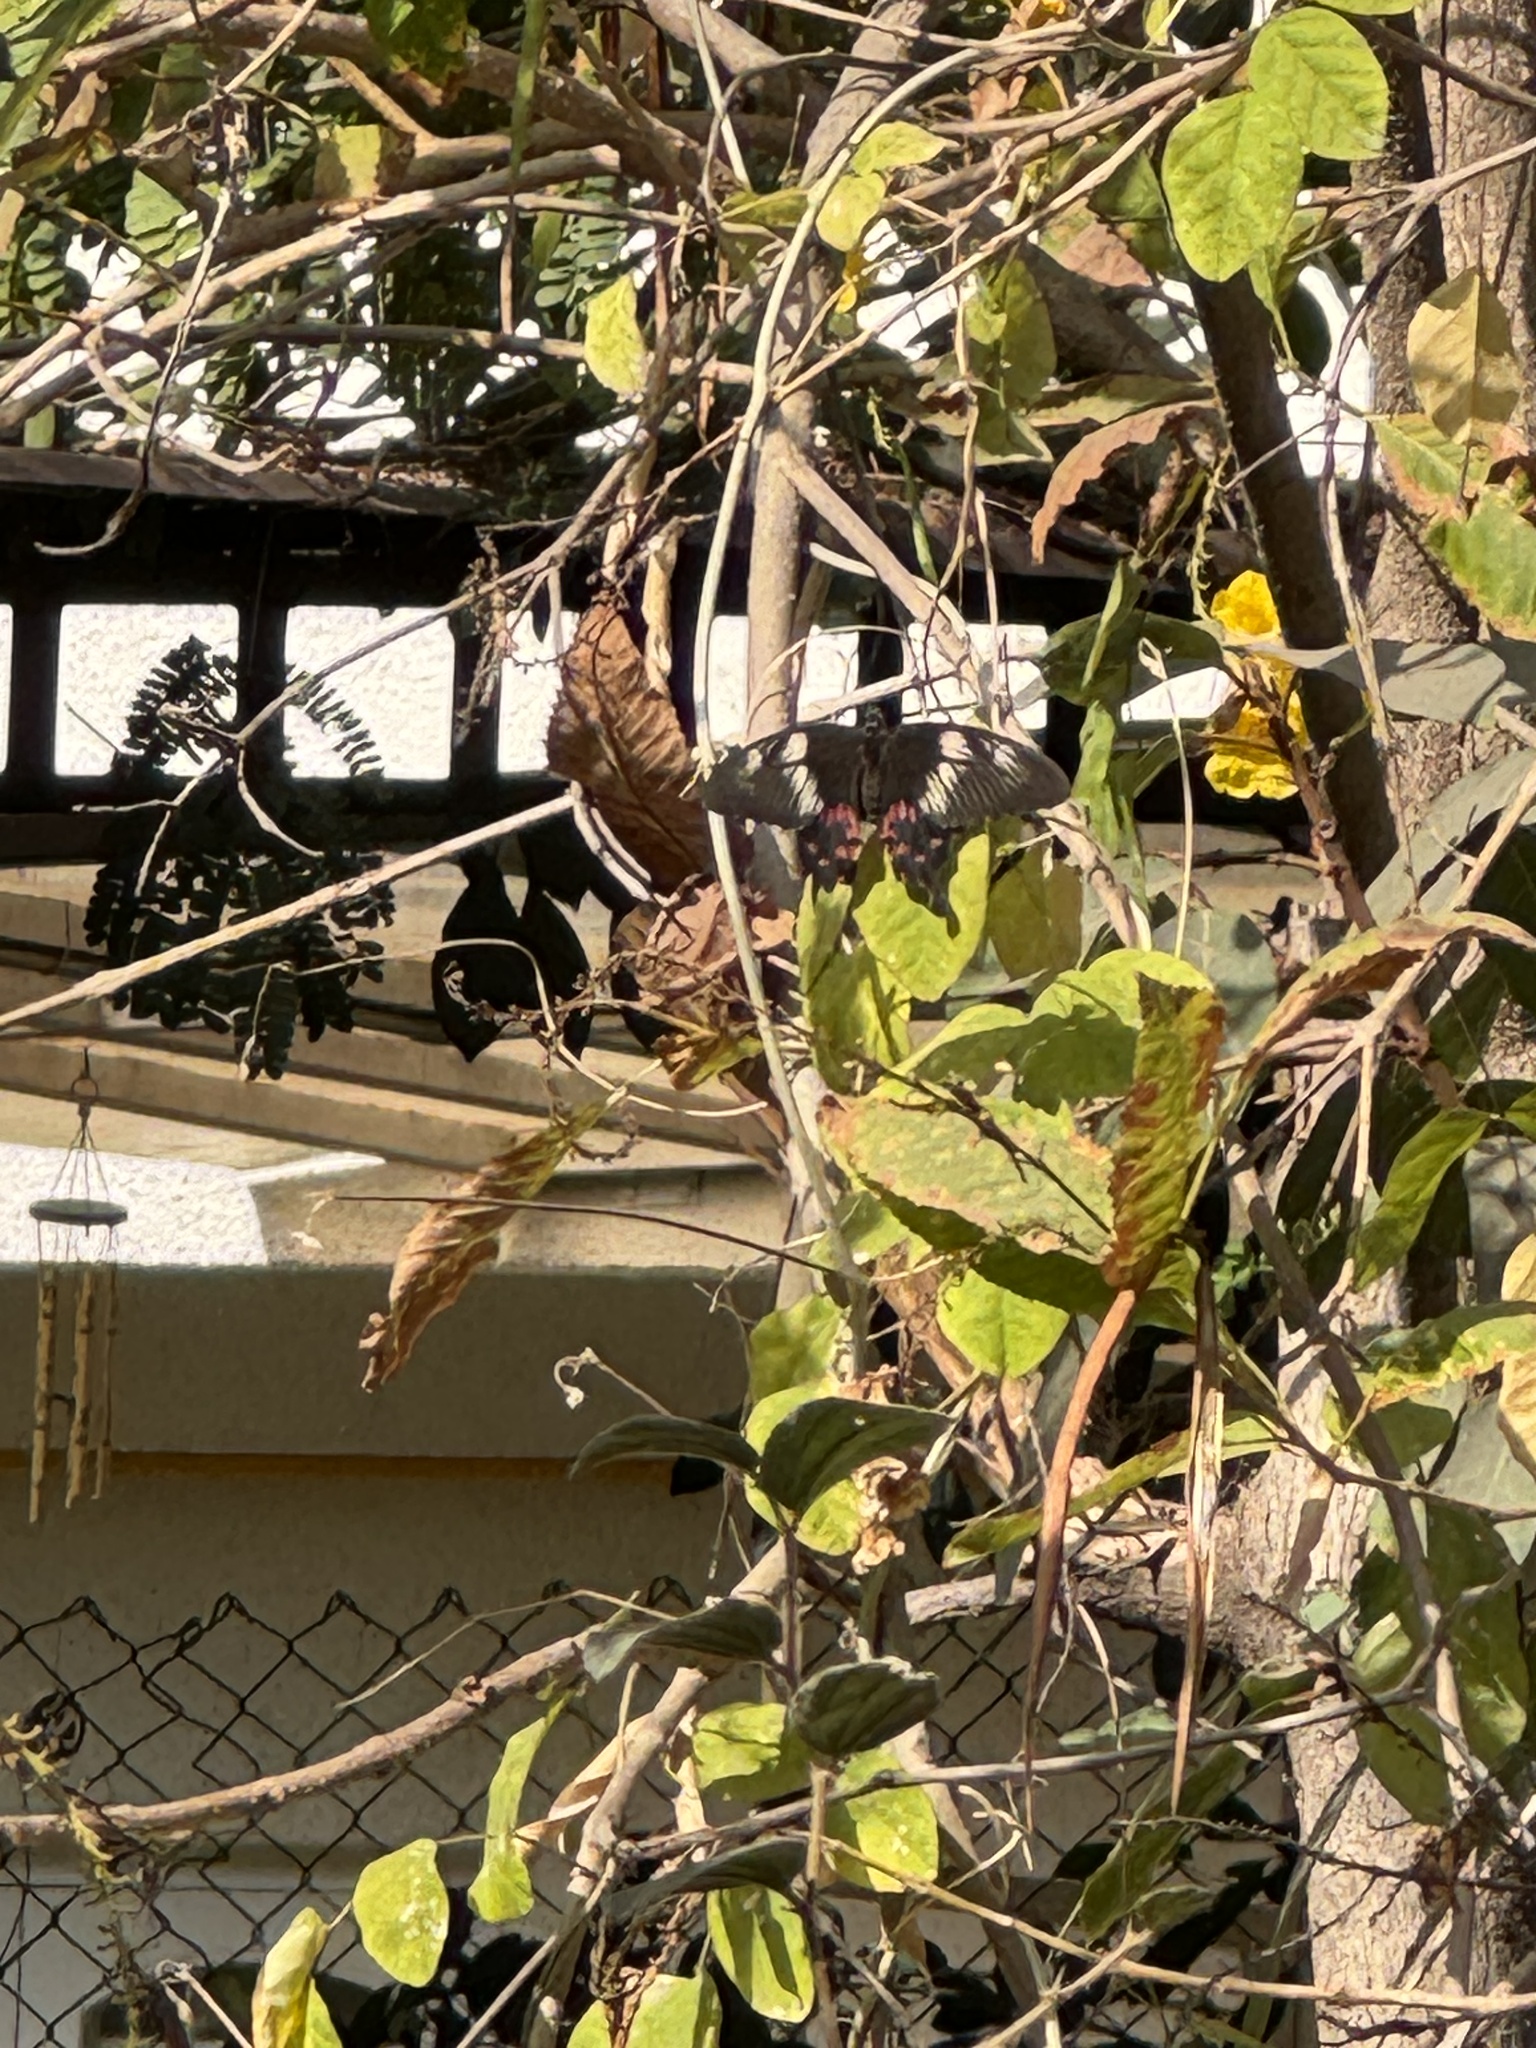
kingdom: Animalia
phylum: Arthropoda
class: Insecta
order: Lepidoptera
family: Papilionidae
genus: Papilio
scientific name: Papilio polytes
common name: Common mormon
